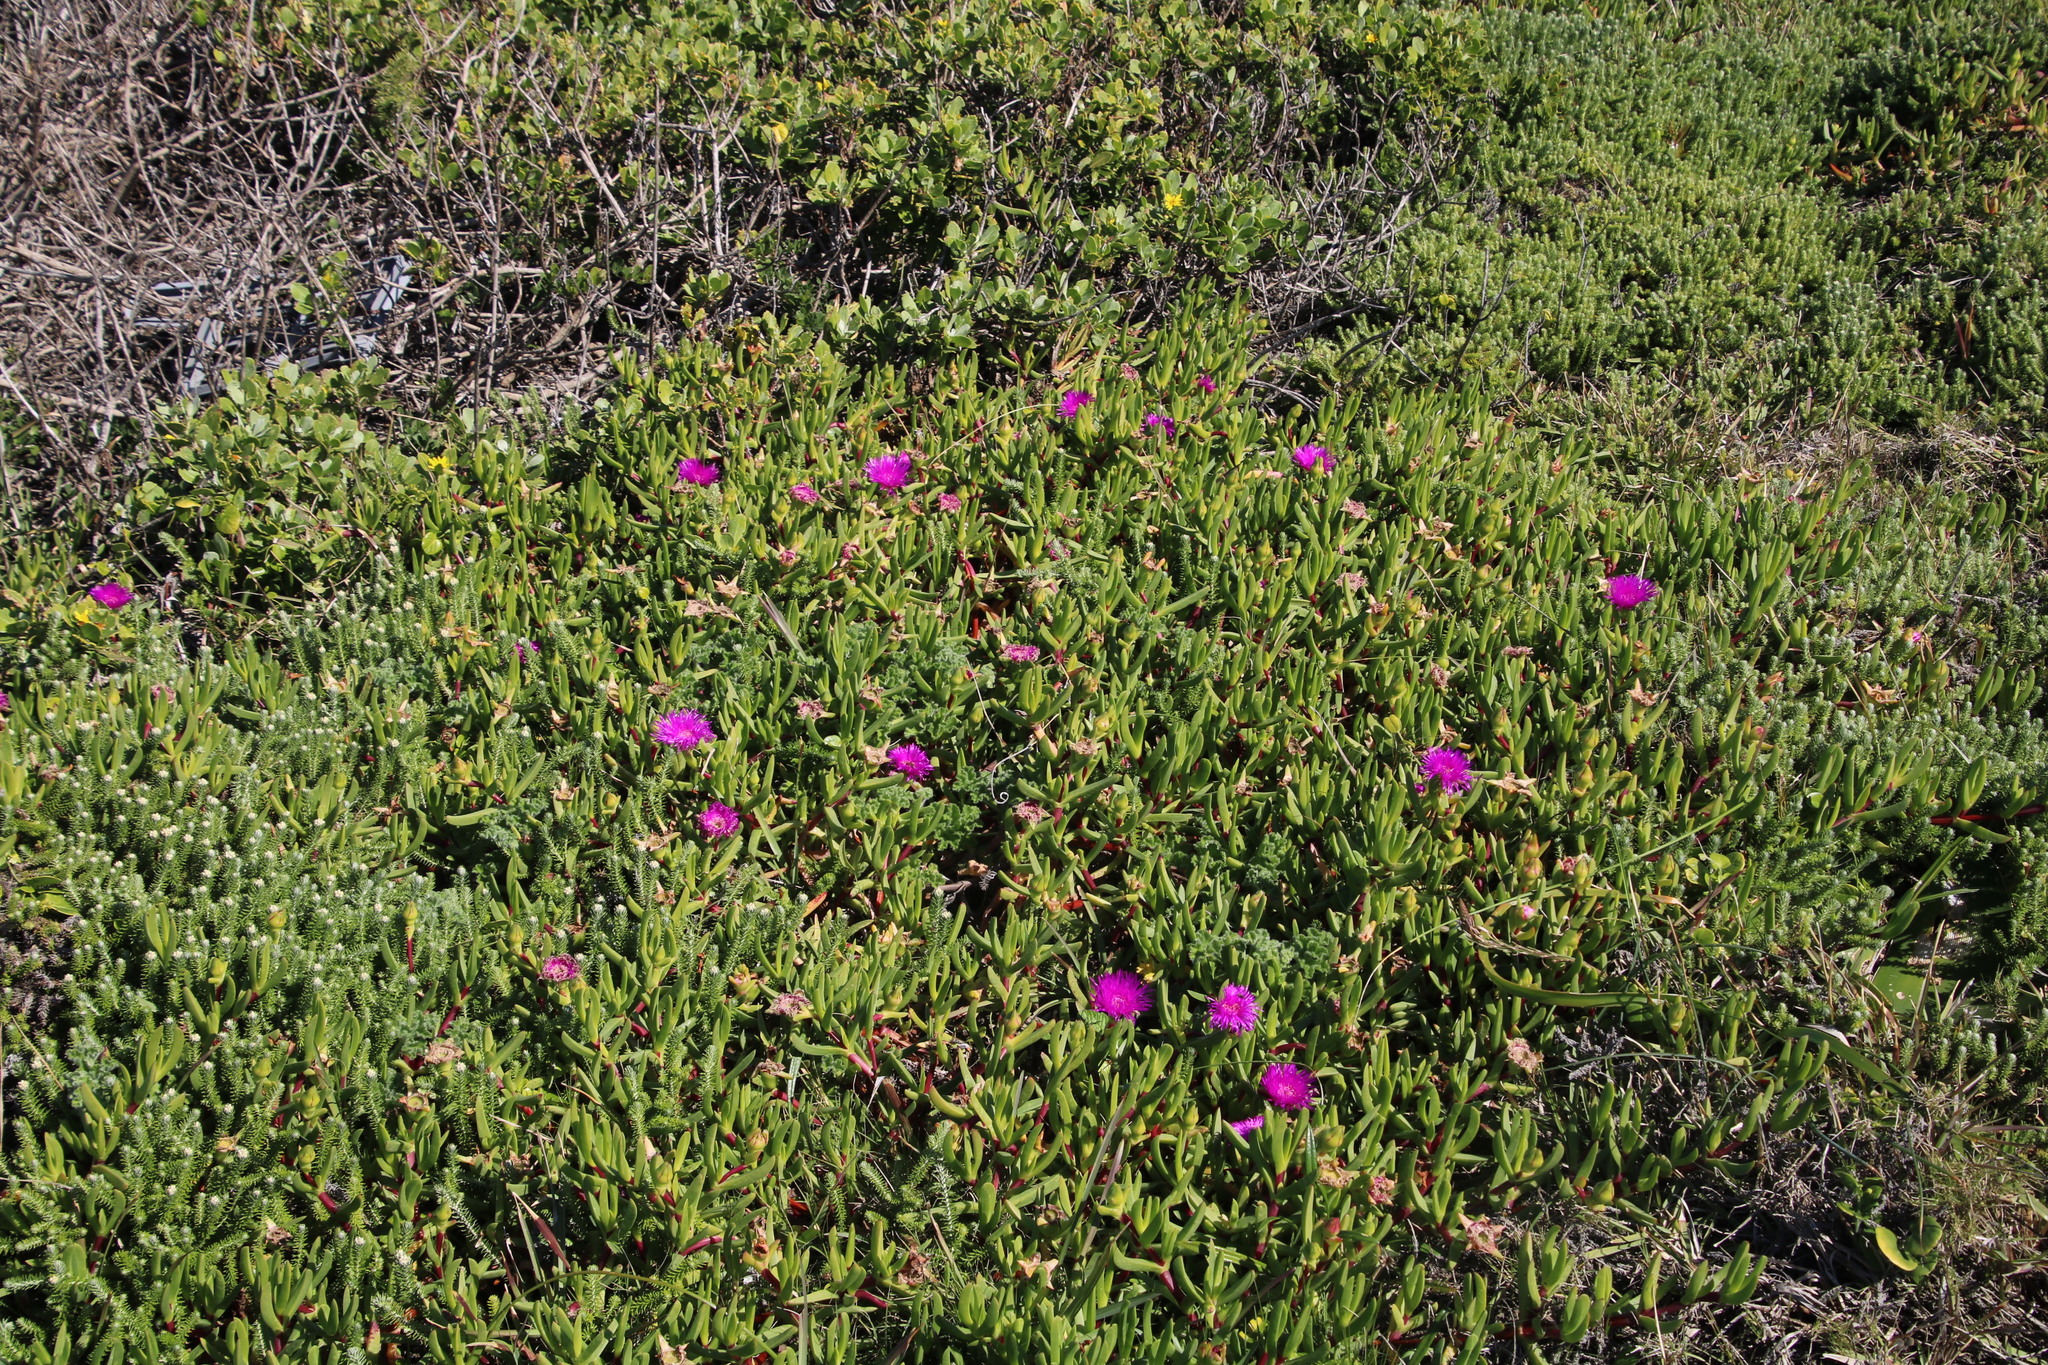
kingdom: Plantae
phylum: Tracheophyta
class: Magnoliopsida
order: Caryophyllales
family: Aizoaceae
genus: Carpobrotus
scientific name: Carpobrotus deliciosus
